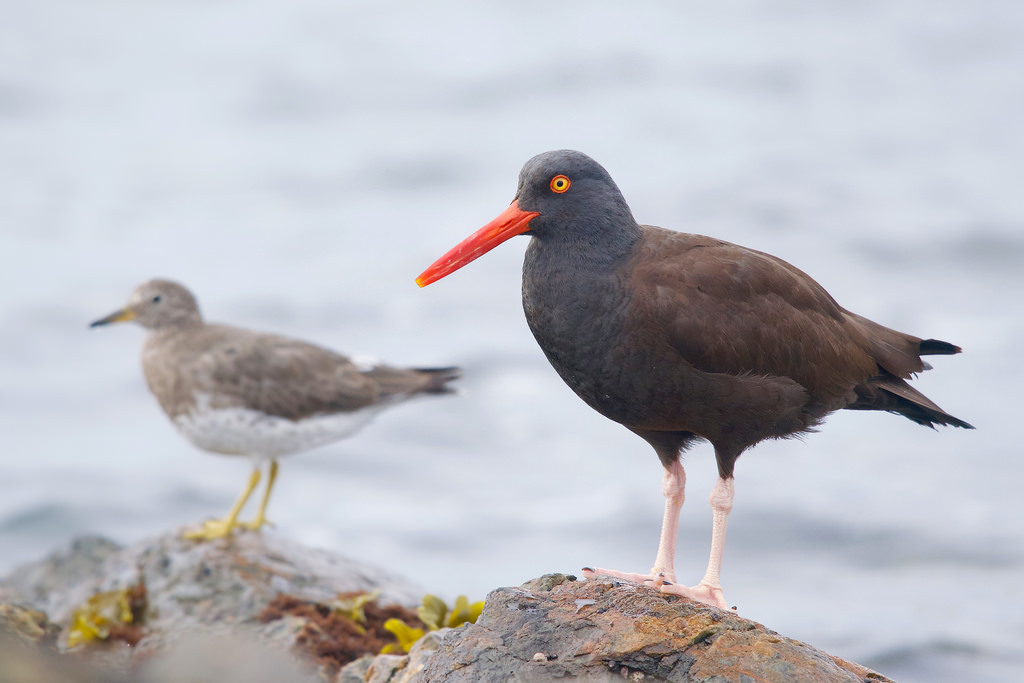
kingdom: Animalia
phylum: Chordata
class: Aves
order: Charadriiformes
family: Haematopodidae
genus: Haematopus
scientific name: Haematopus bachmani
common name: Black oystercatcher
